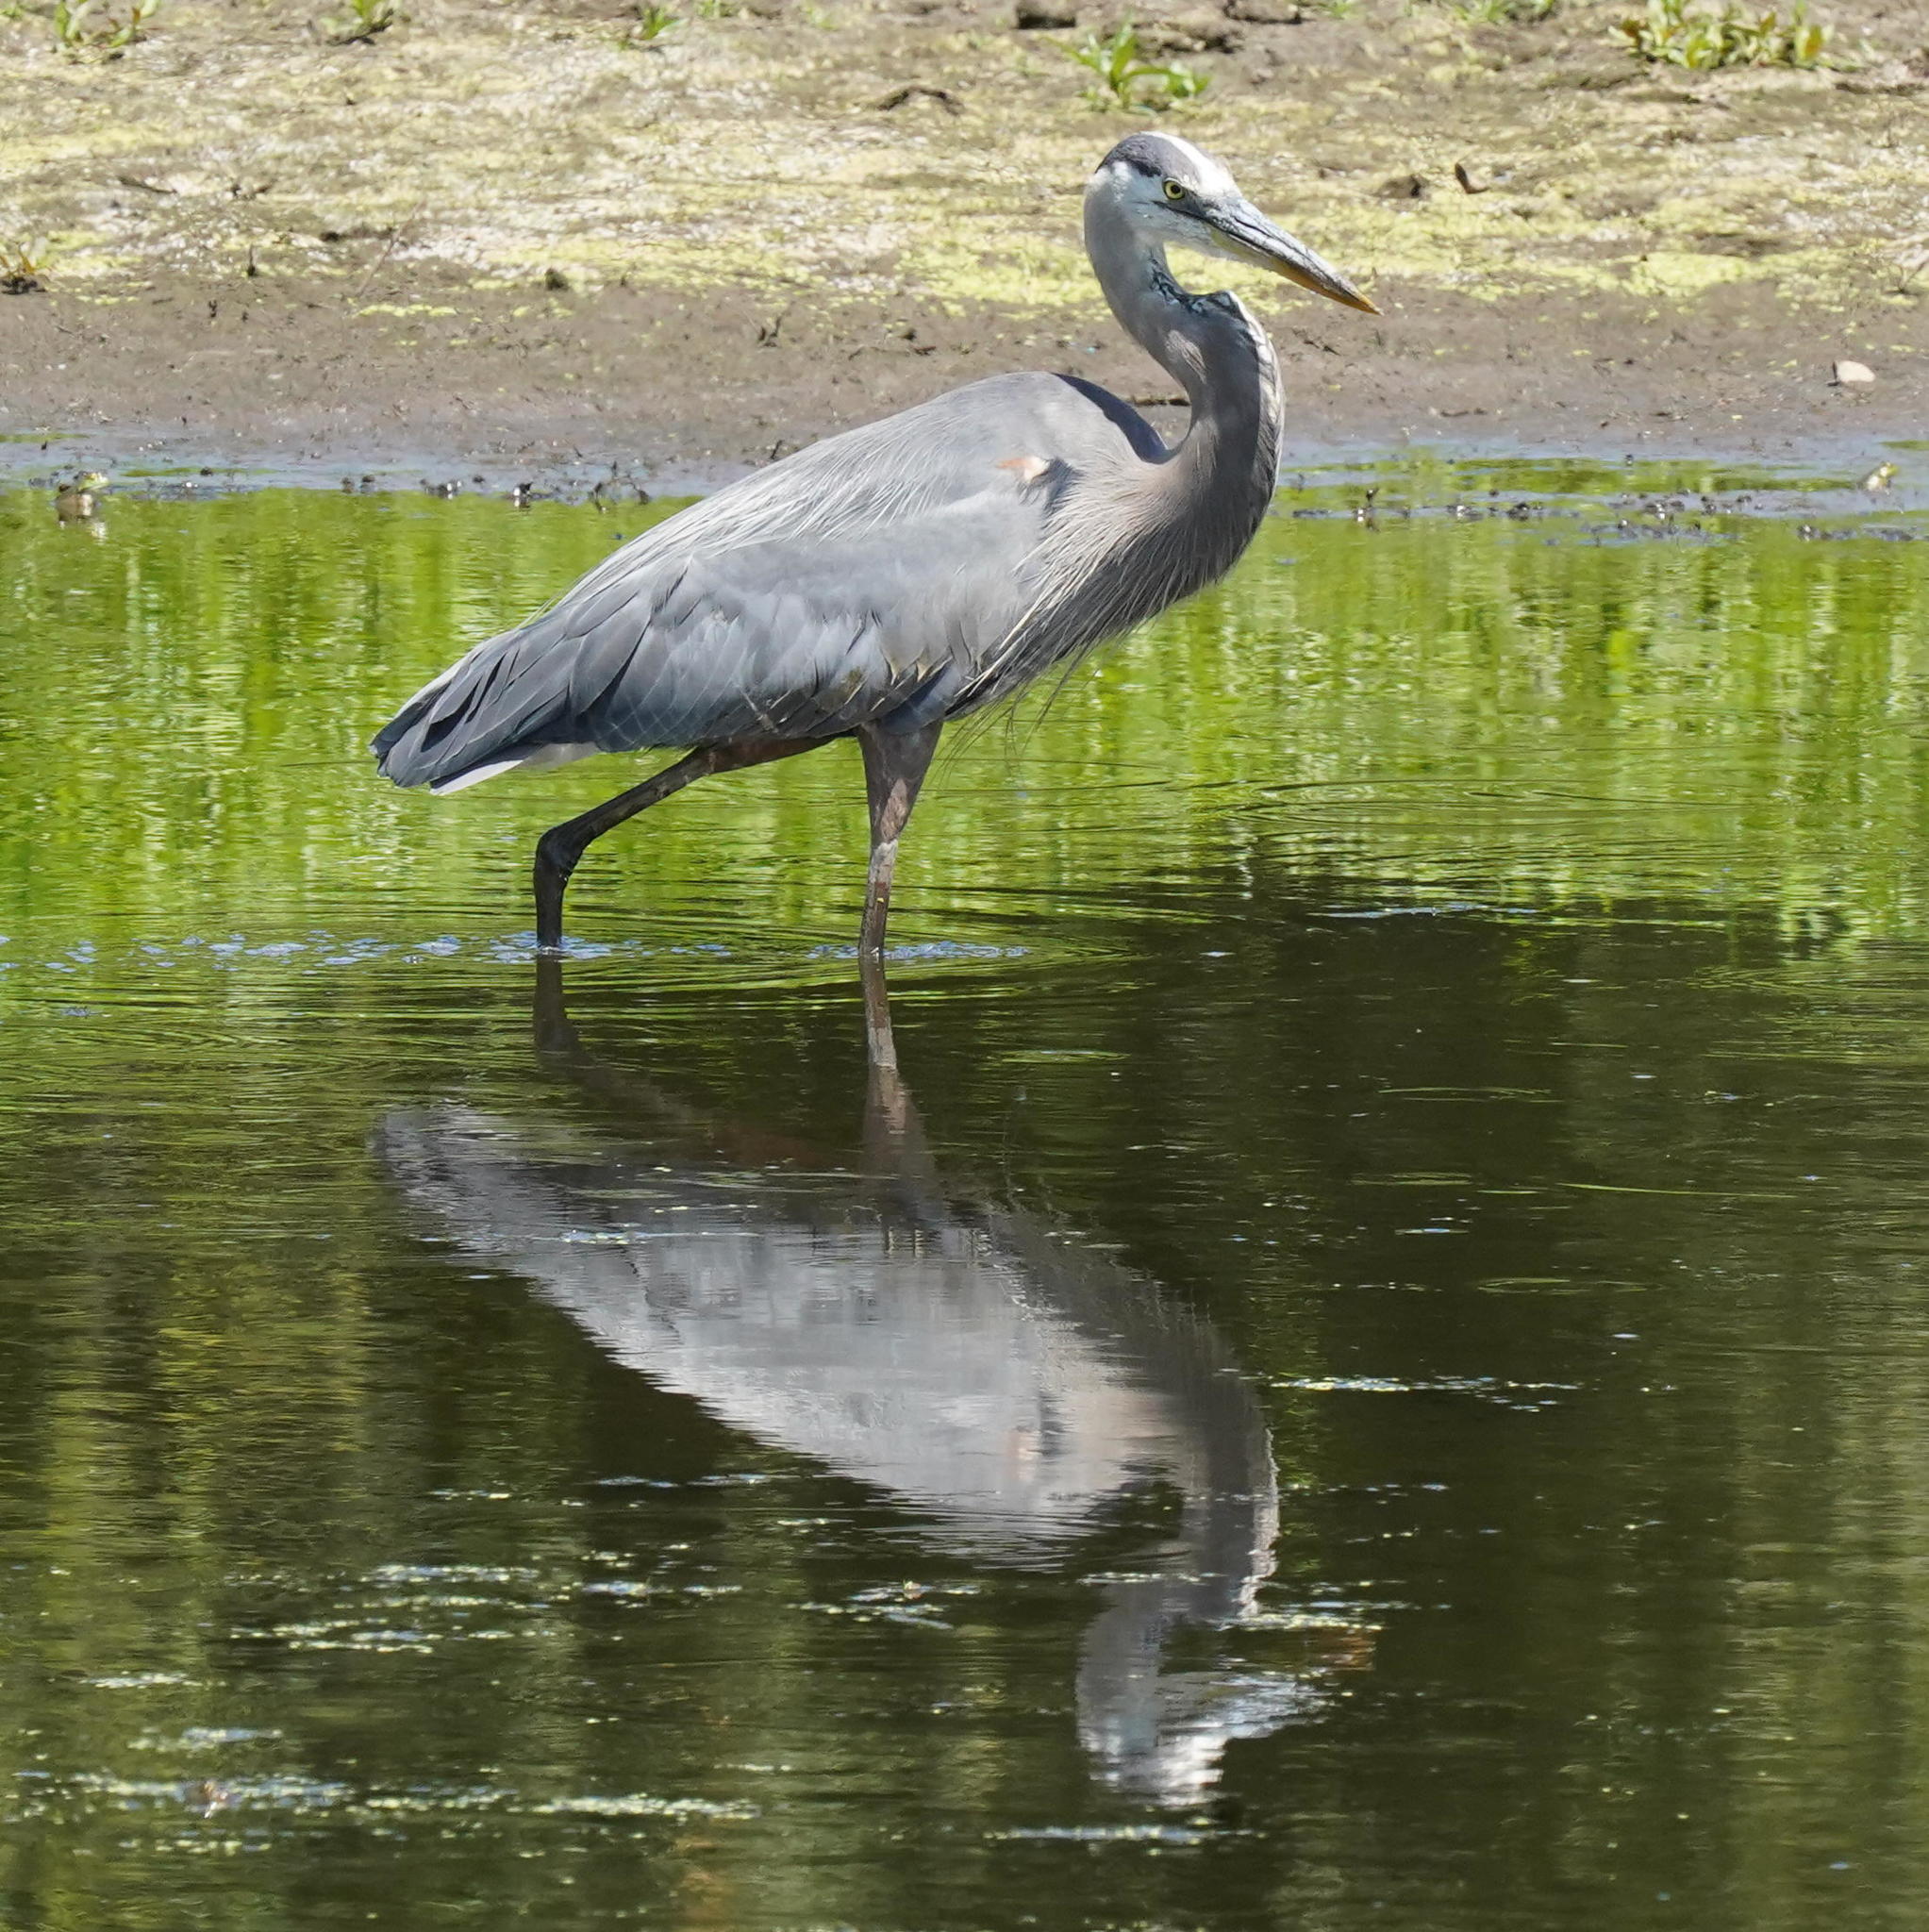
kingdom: Animalia
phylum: Chordata
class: Aves
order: Pelecaniformes
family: Ardeidae
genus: Ardea
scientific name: Ardea herodias
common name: Great blue heron
